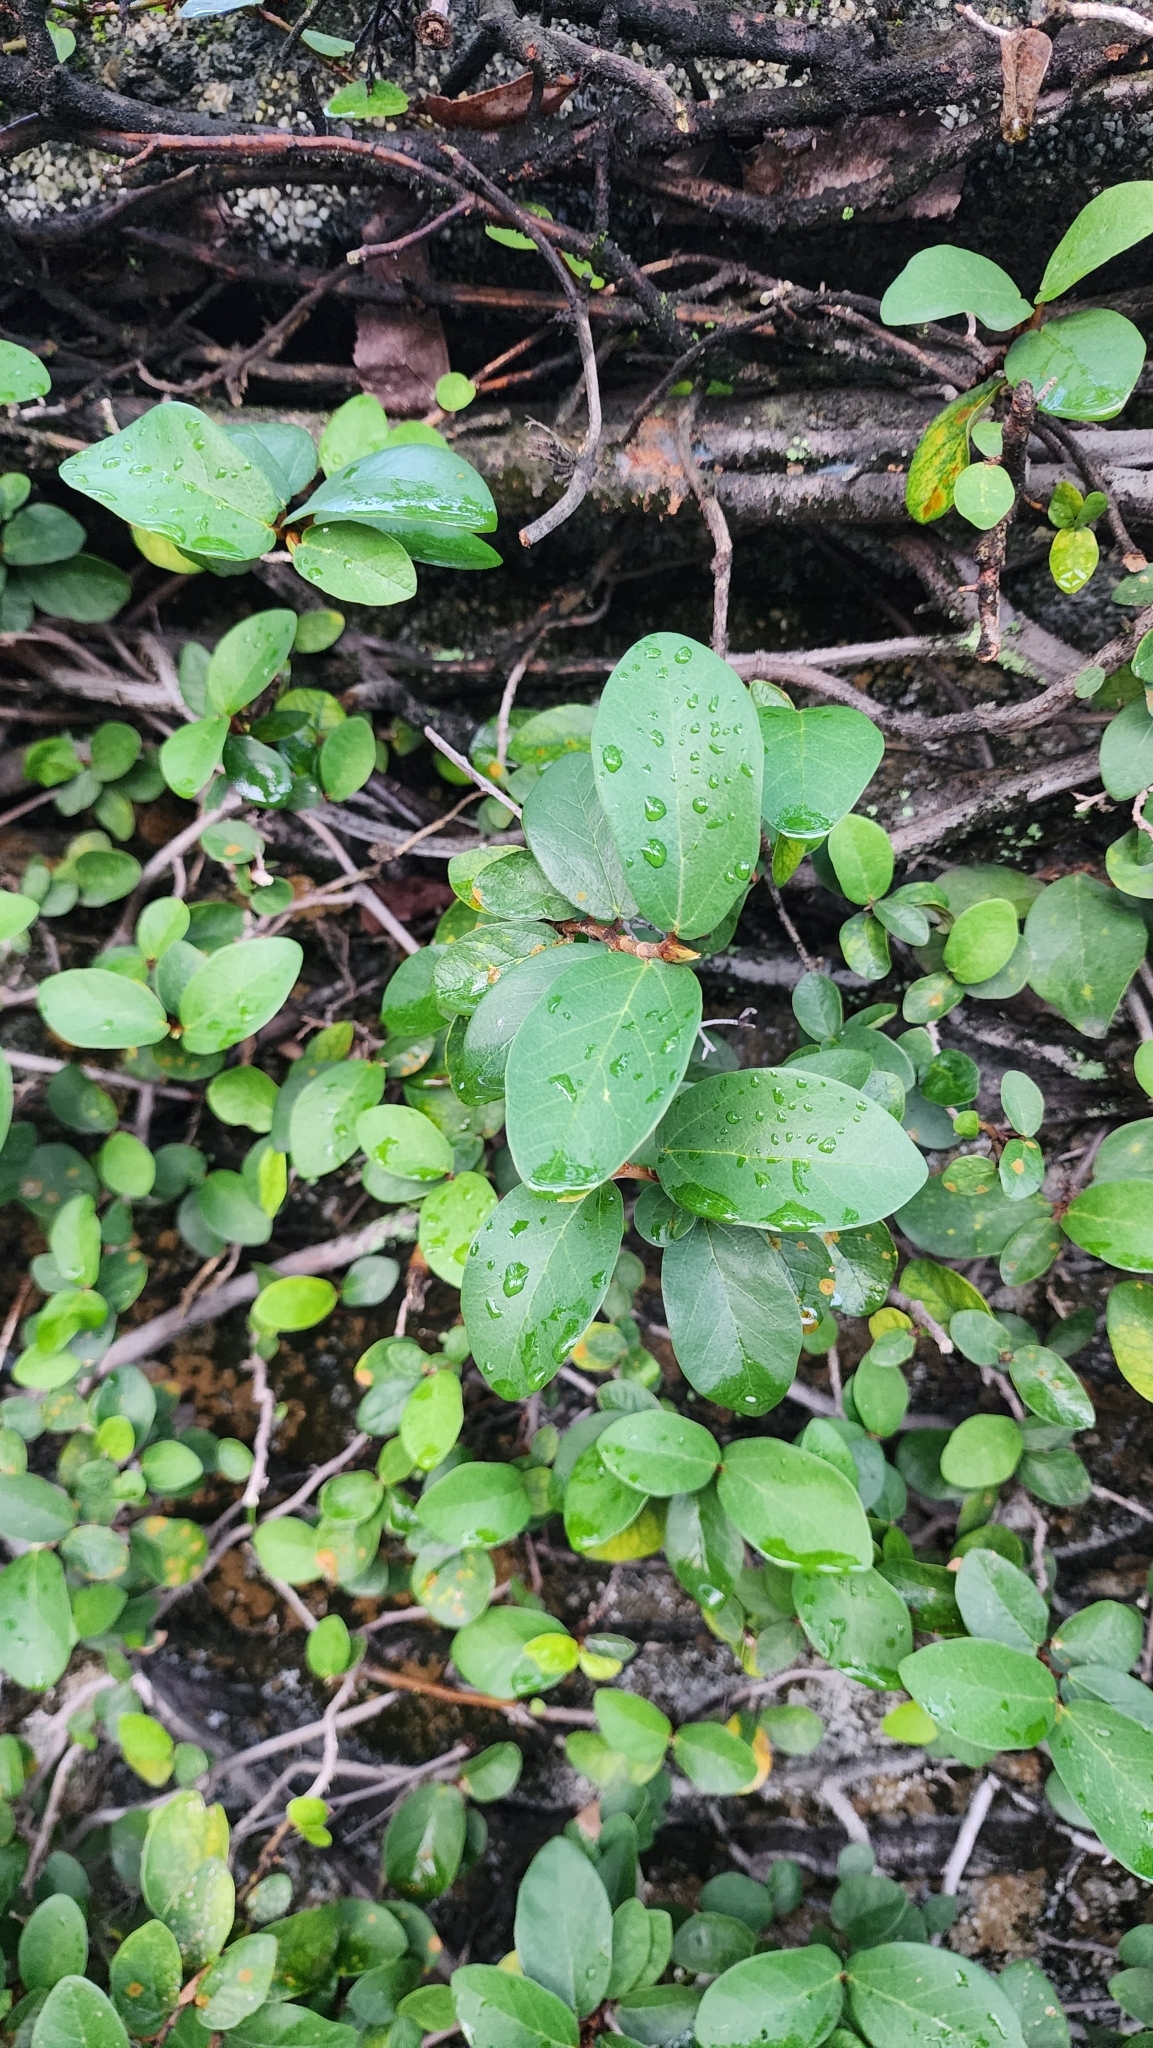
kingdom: Plantae
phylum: Tracheophyta
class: Magnoliopsida
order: Rosales
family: Moraceae
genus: Ficus
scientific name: Ficus pumila
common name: Climbingfig
